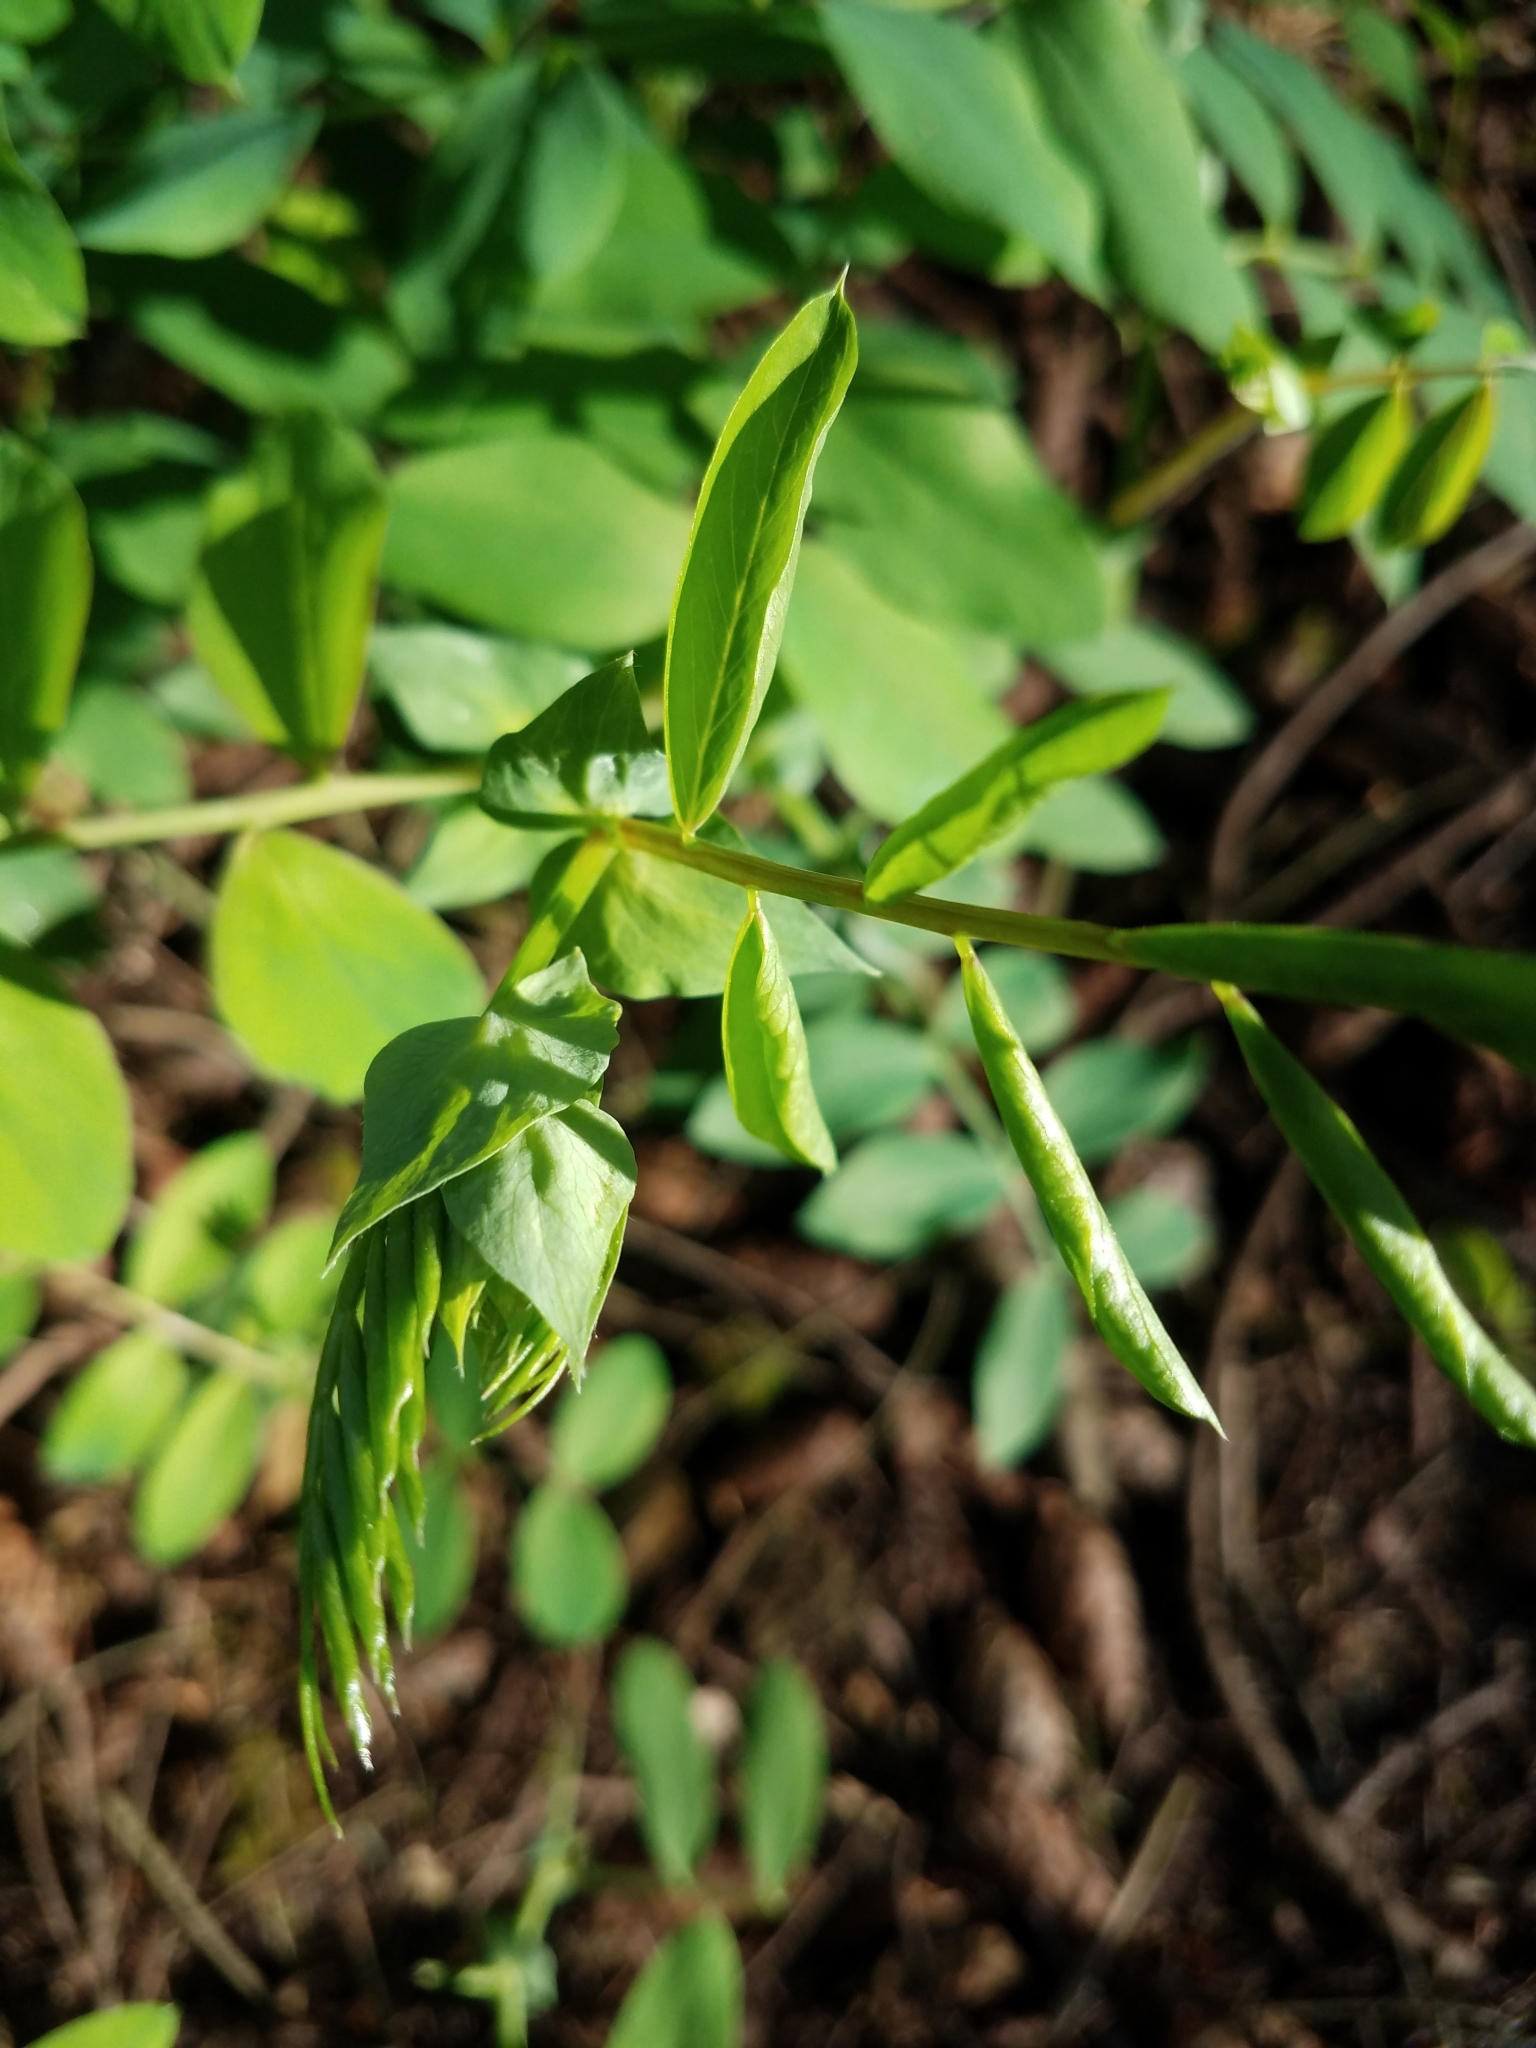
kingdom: Plantae
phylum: Tracheophyta
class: Magnoliopsida
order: Fabales
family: Fabaceae
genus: Lathyrus
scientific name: Lathyrus polyphyllus
